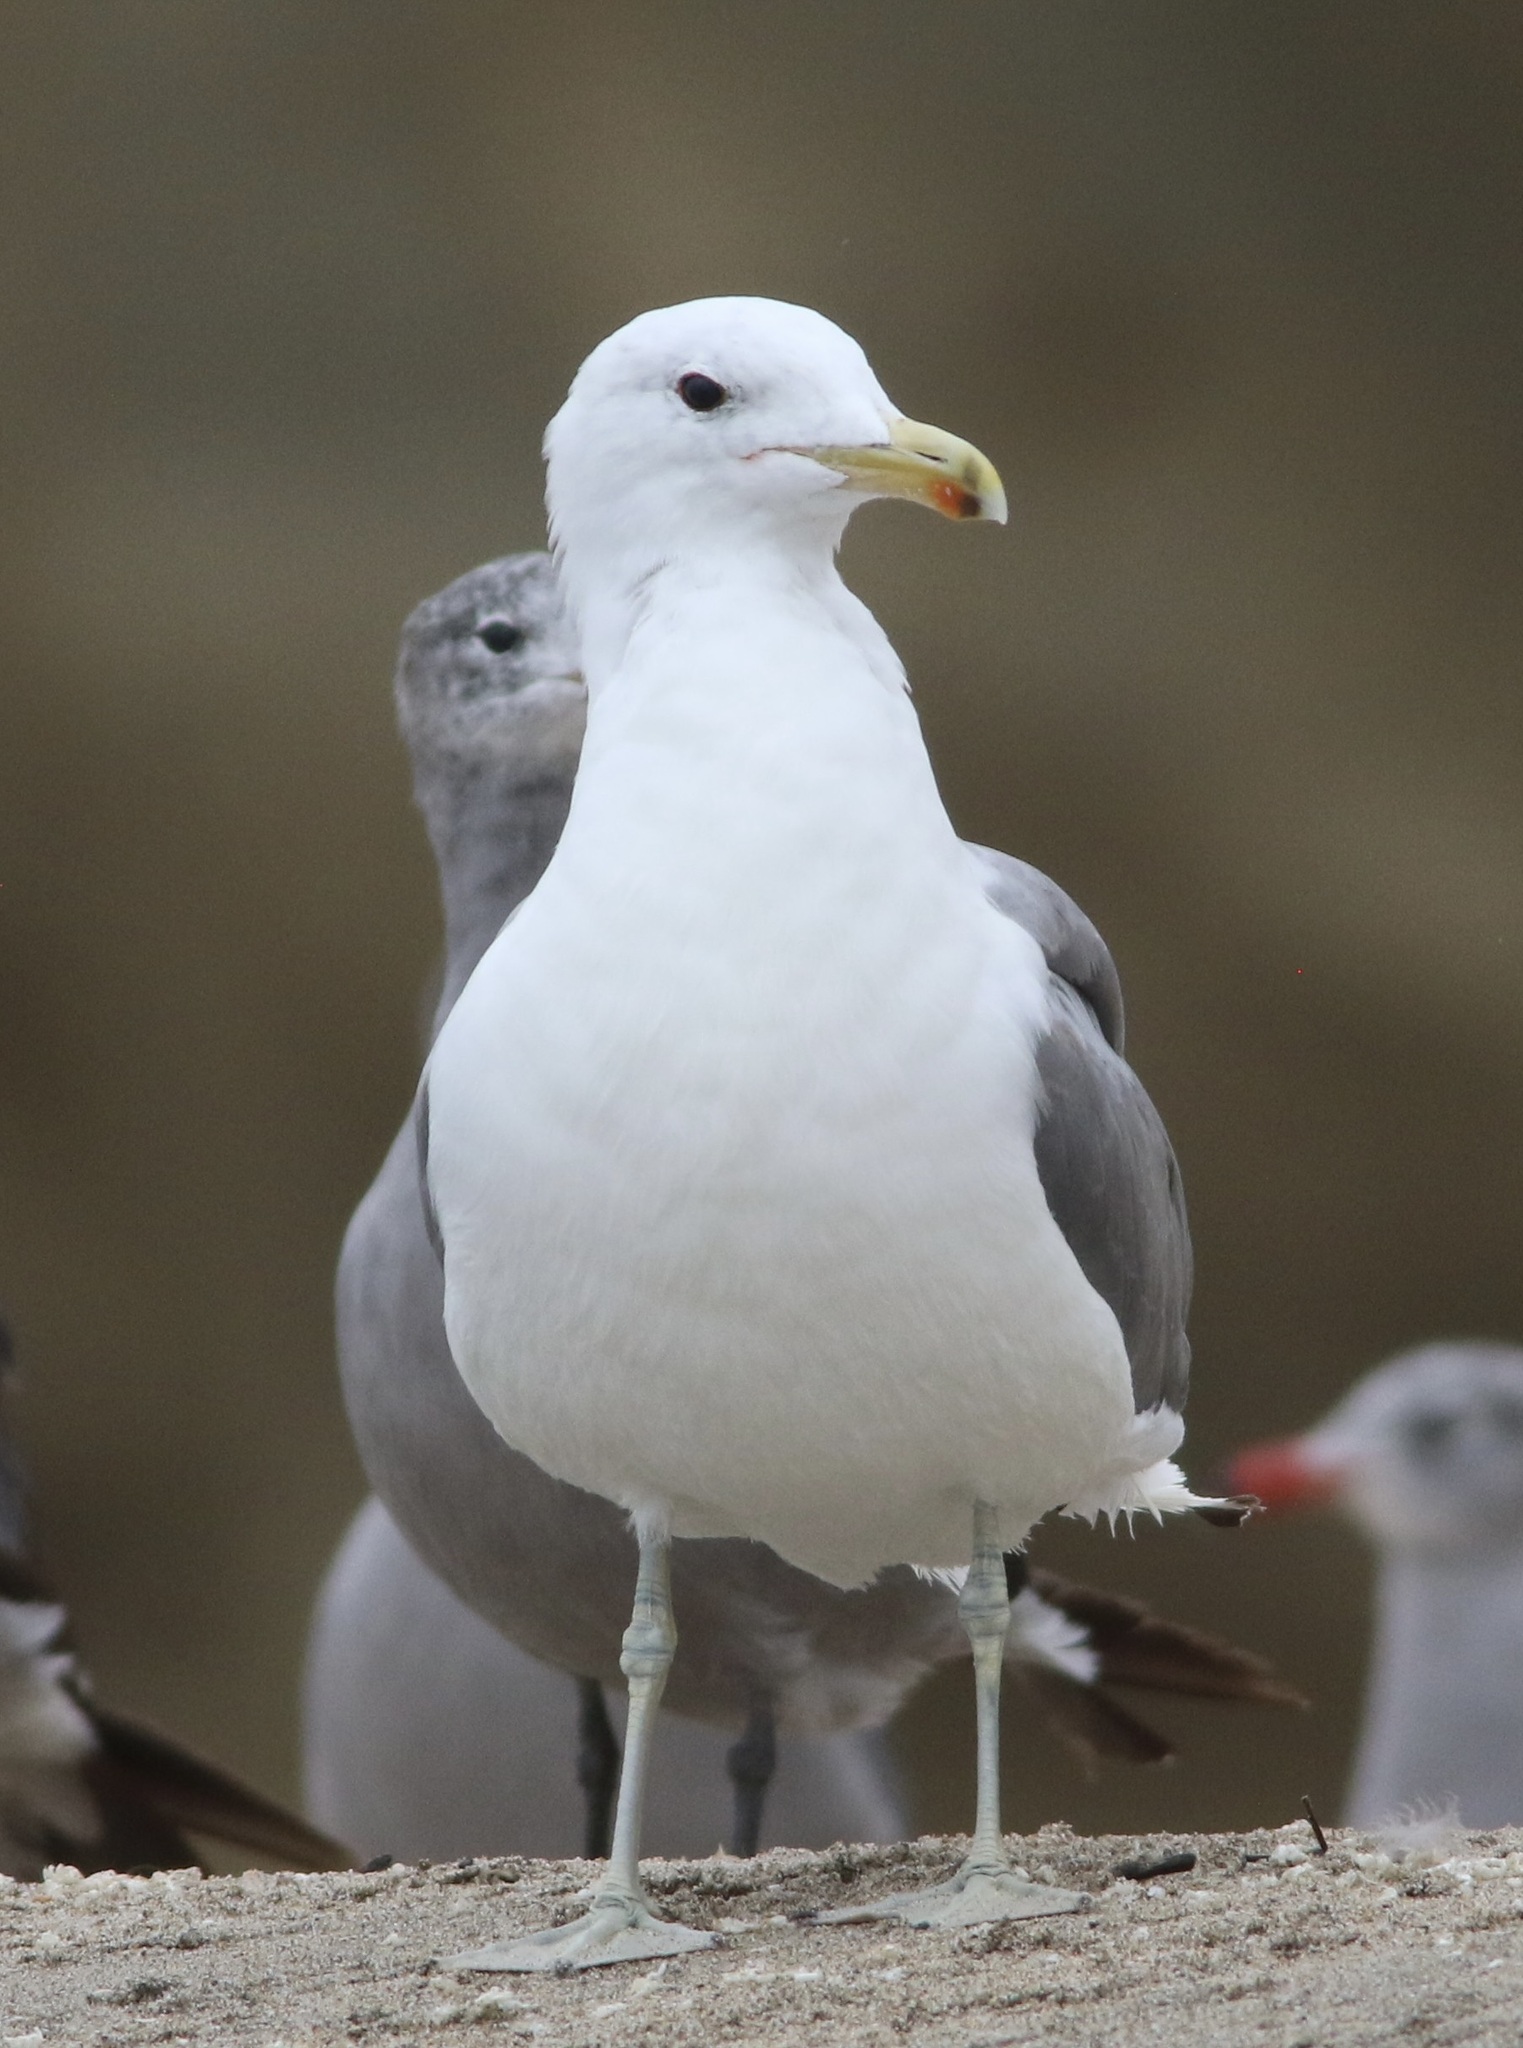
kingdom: Animalia
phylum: Chordata
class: Aves
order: Charadriiformes
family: Laridae
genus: Larus
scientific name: Larus californicus
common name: California gull
